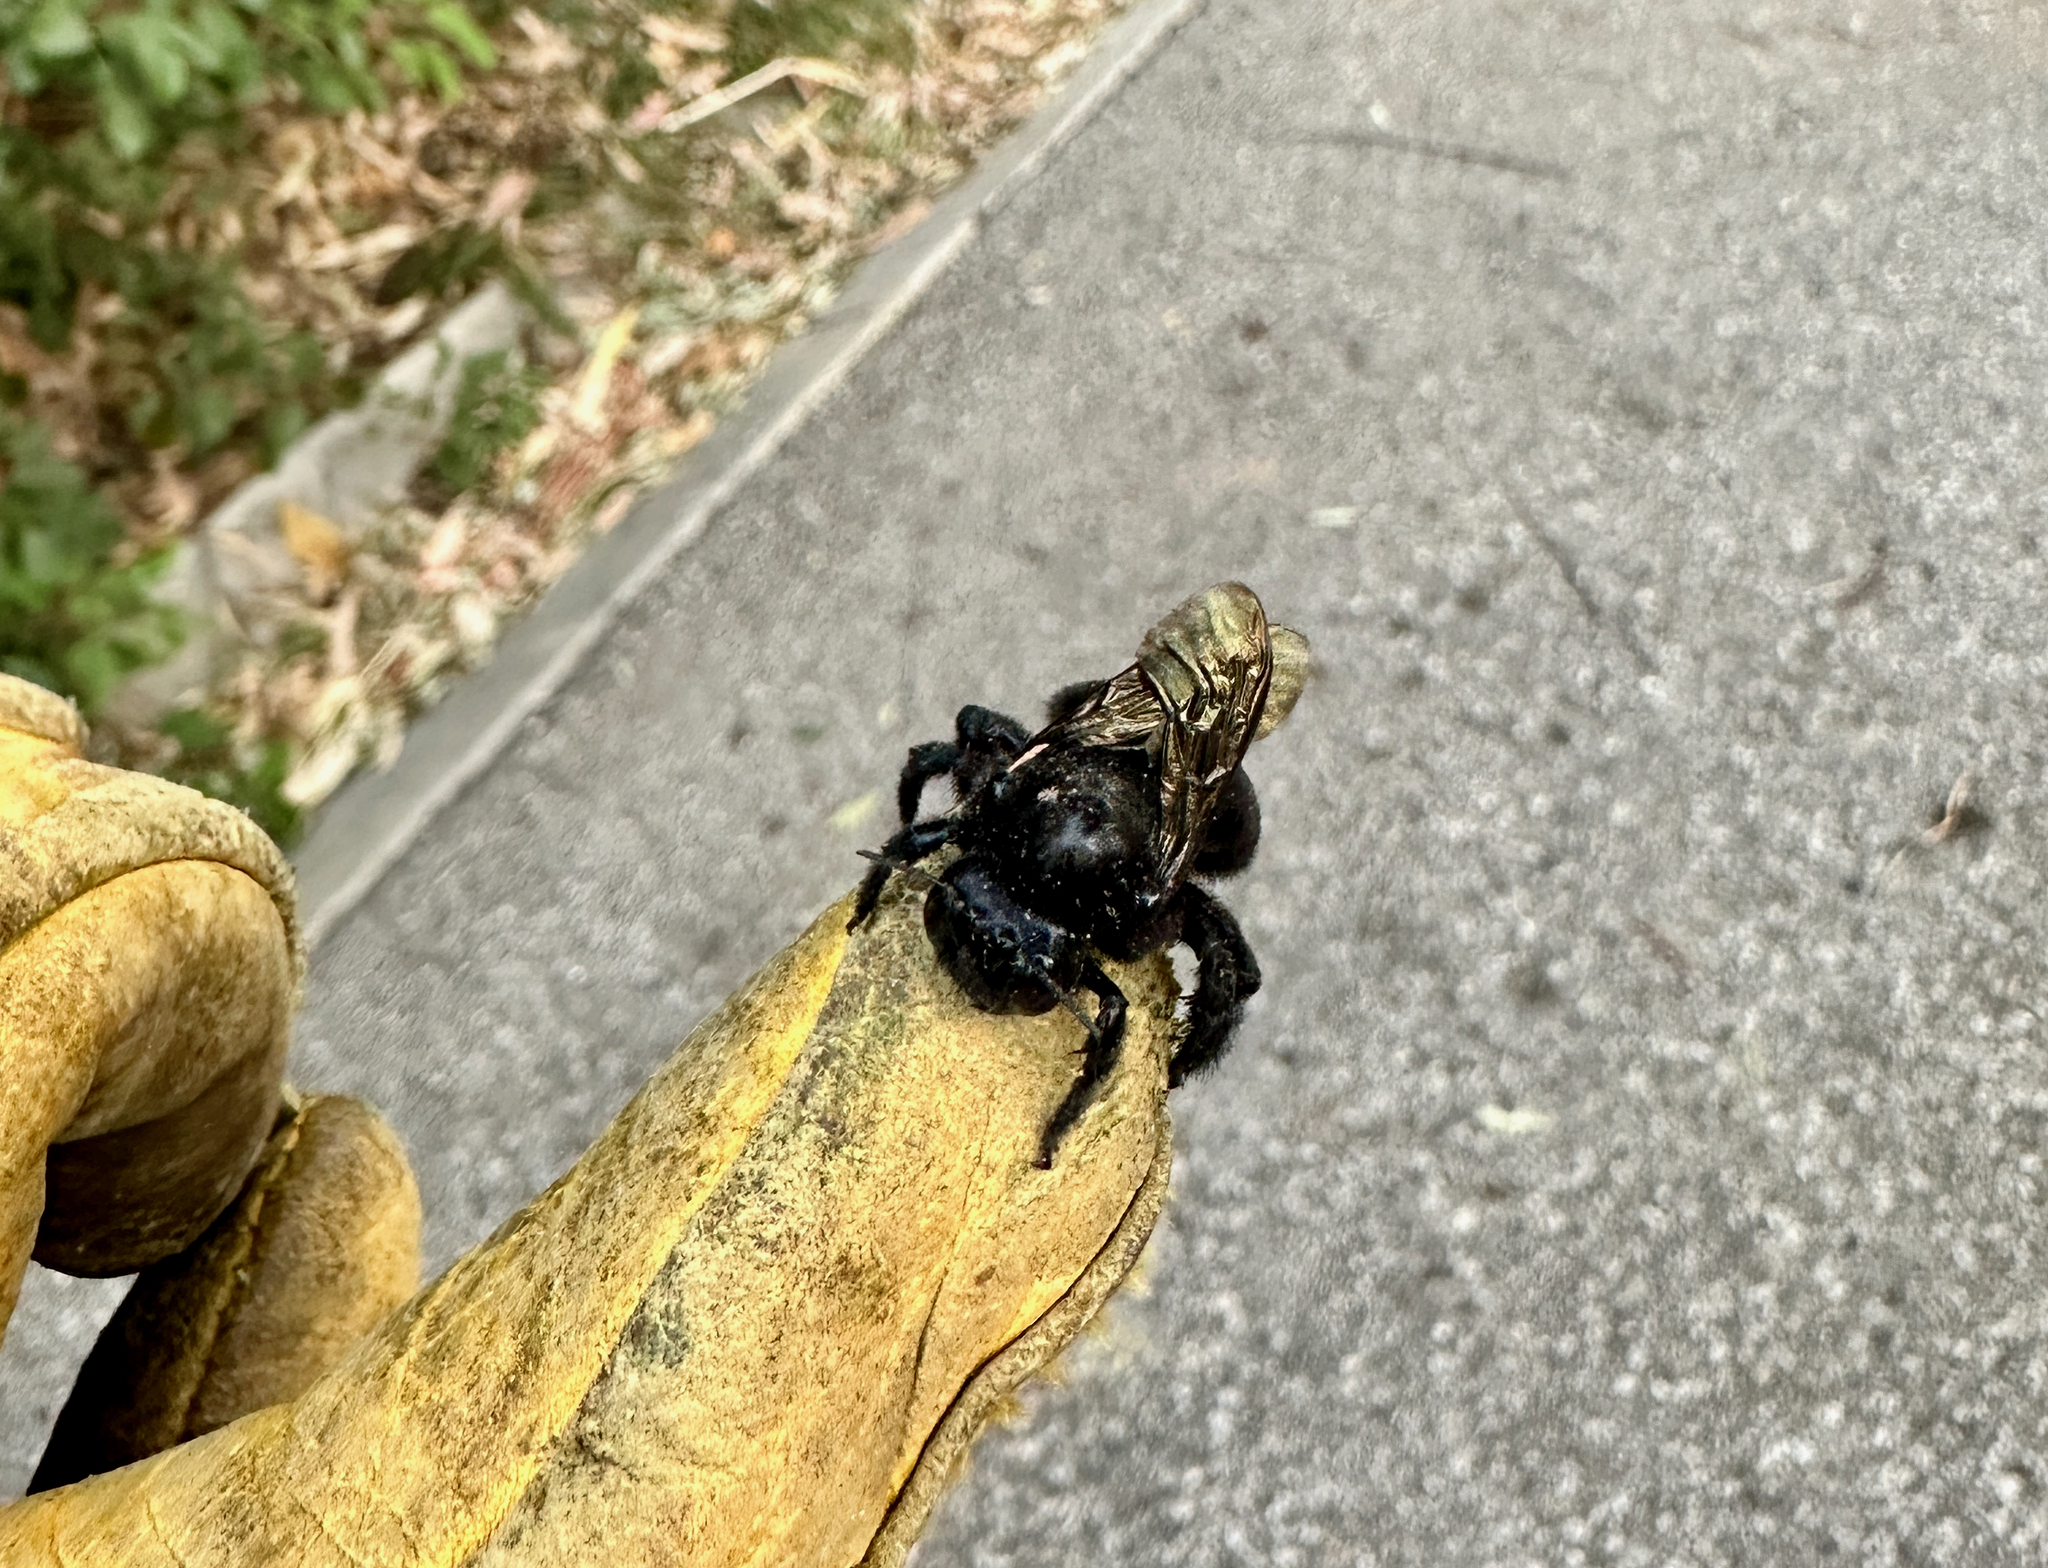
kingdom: Animalia
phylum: Arthropoda
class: Insecta
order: Hymenoptera
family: Apidae
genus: Xylocopa
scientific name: Xylocopa sonorina
